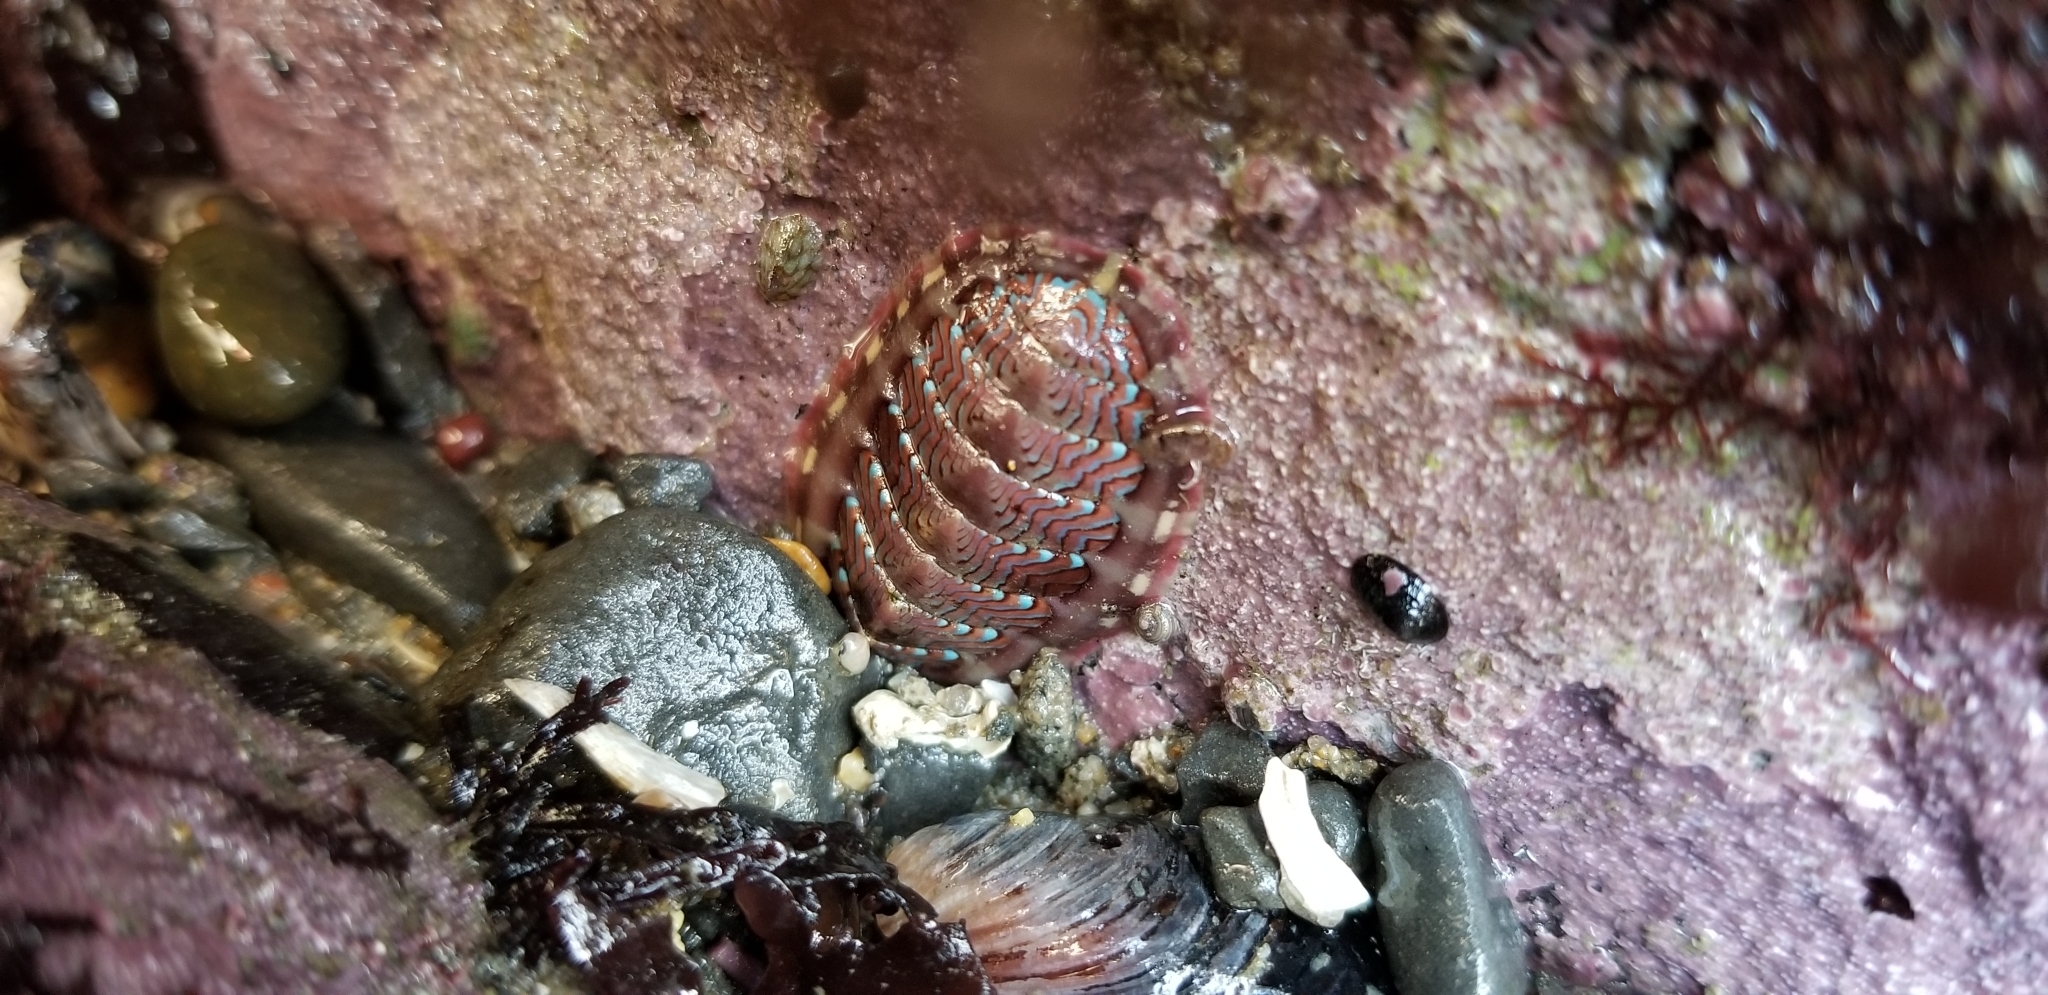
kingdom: Animalia
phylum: Mollusca
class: Polyplacophora
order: Chitonida
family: Tonicellidae
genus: Tonicella
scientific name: Tonicella lokii
